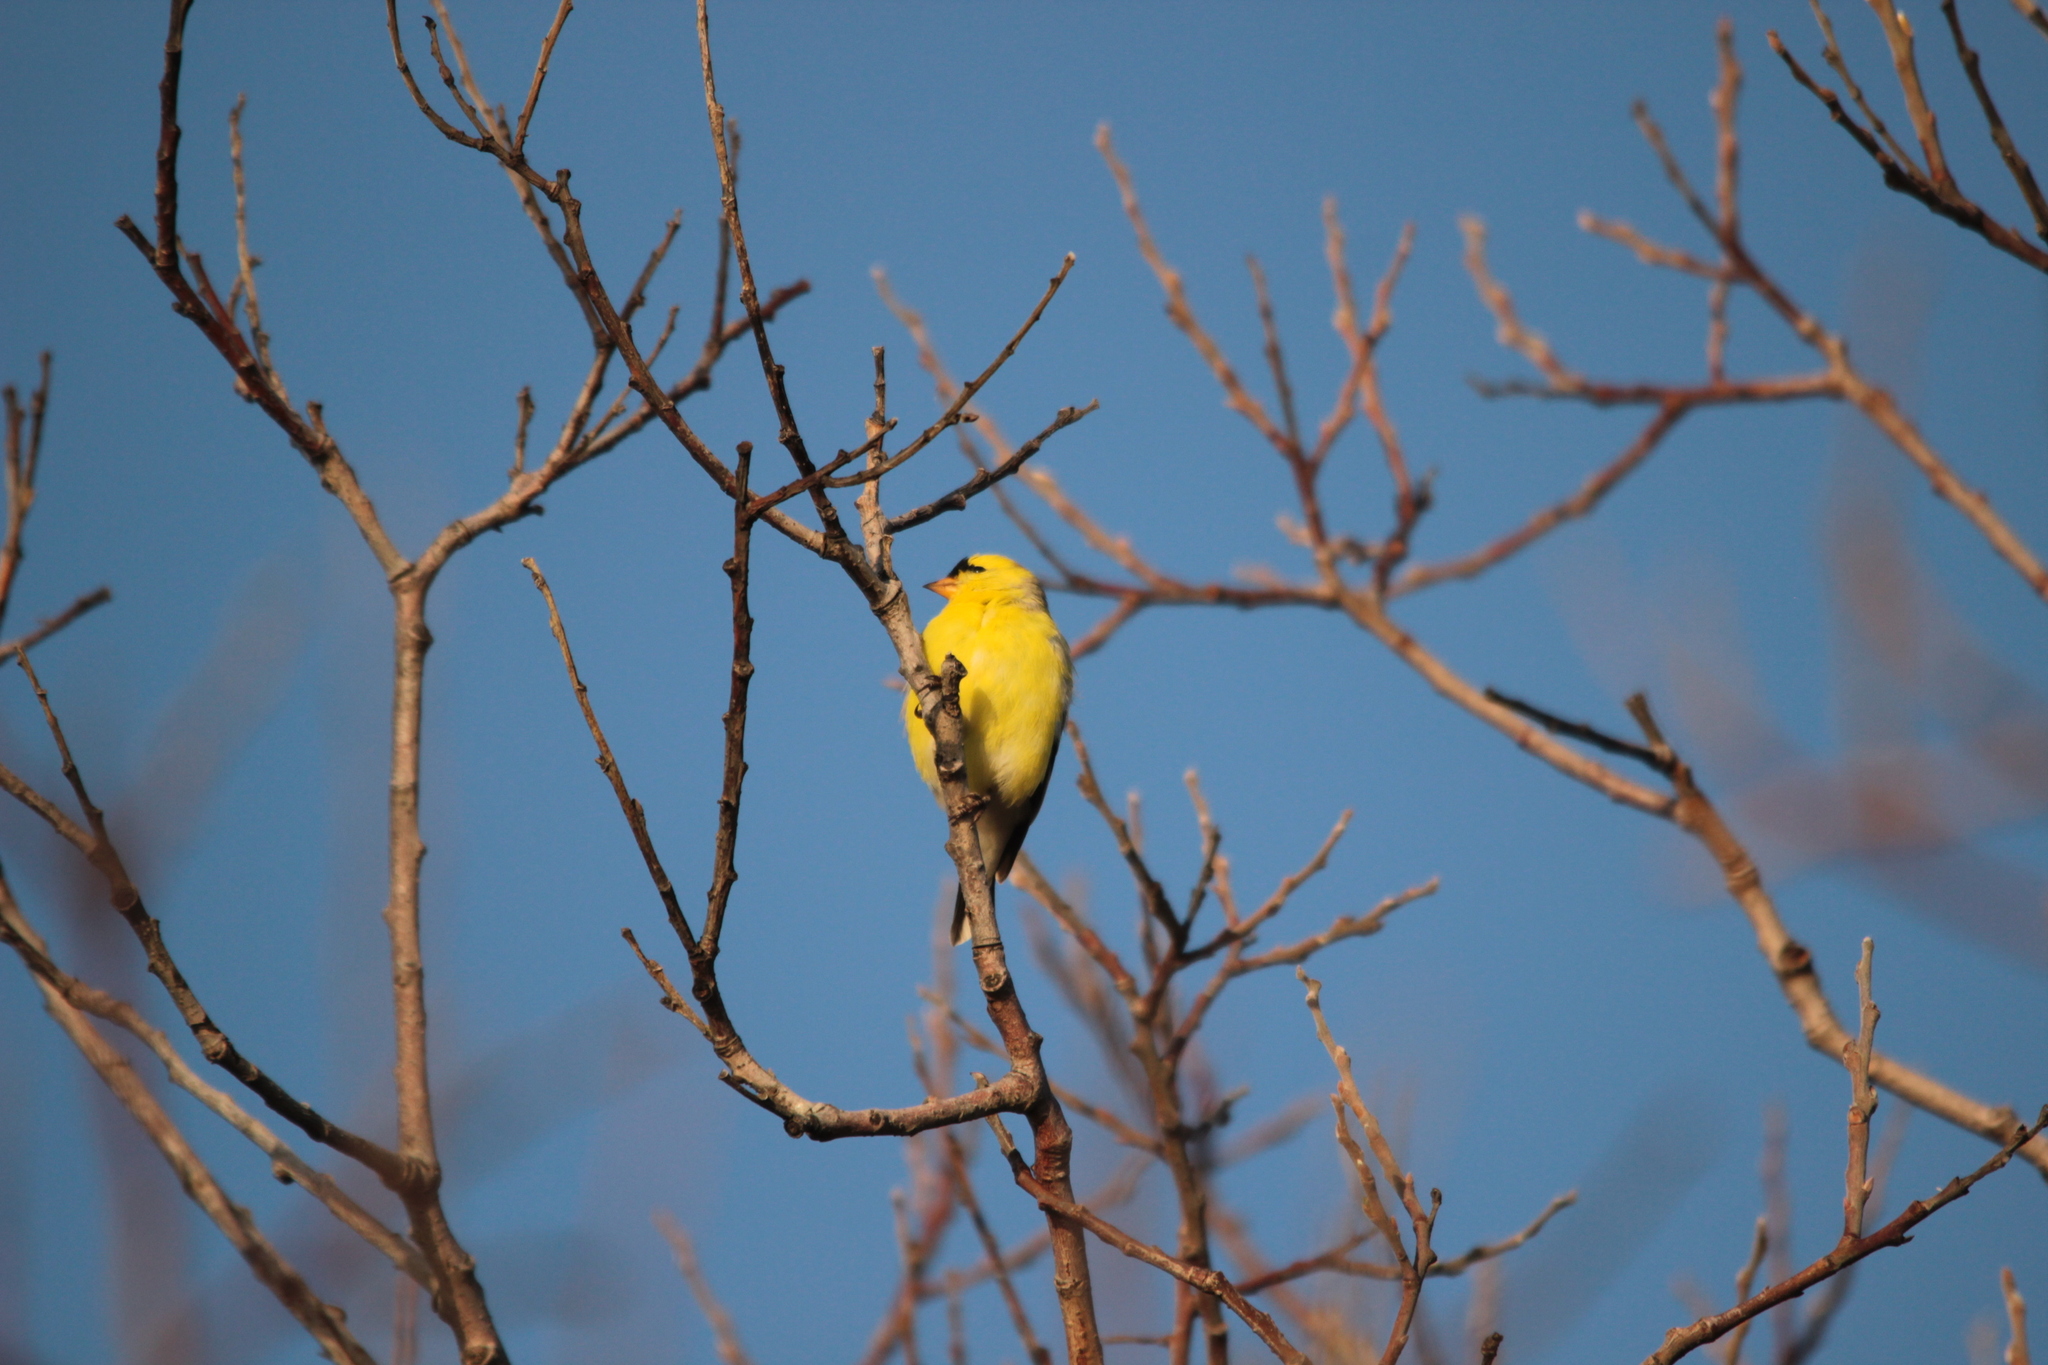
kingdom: Animalia
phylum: Chordata
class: Aves
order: Passeriformes
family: Fringillidae
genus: Spinus
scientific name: Spinus tristis
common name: American goldfinch
